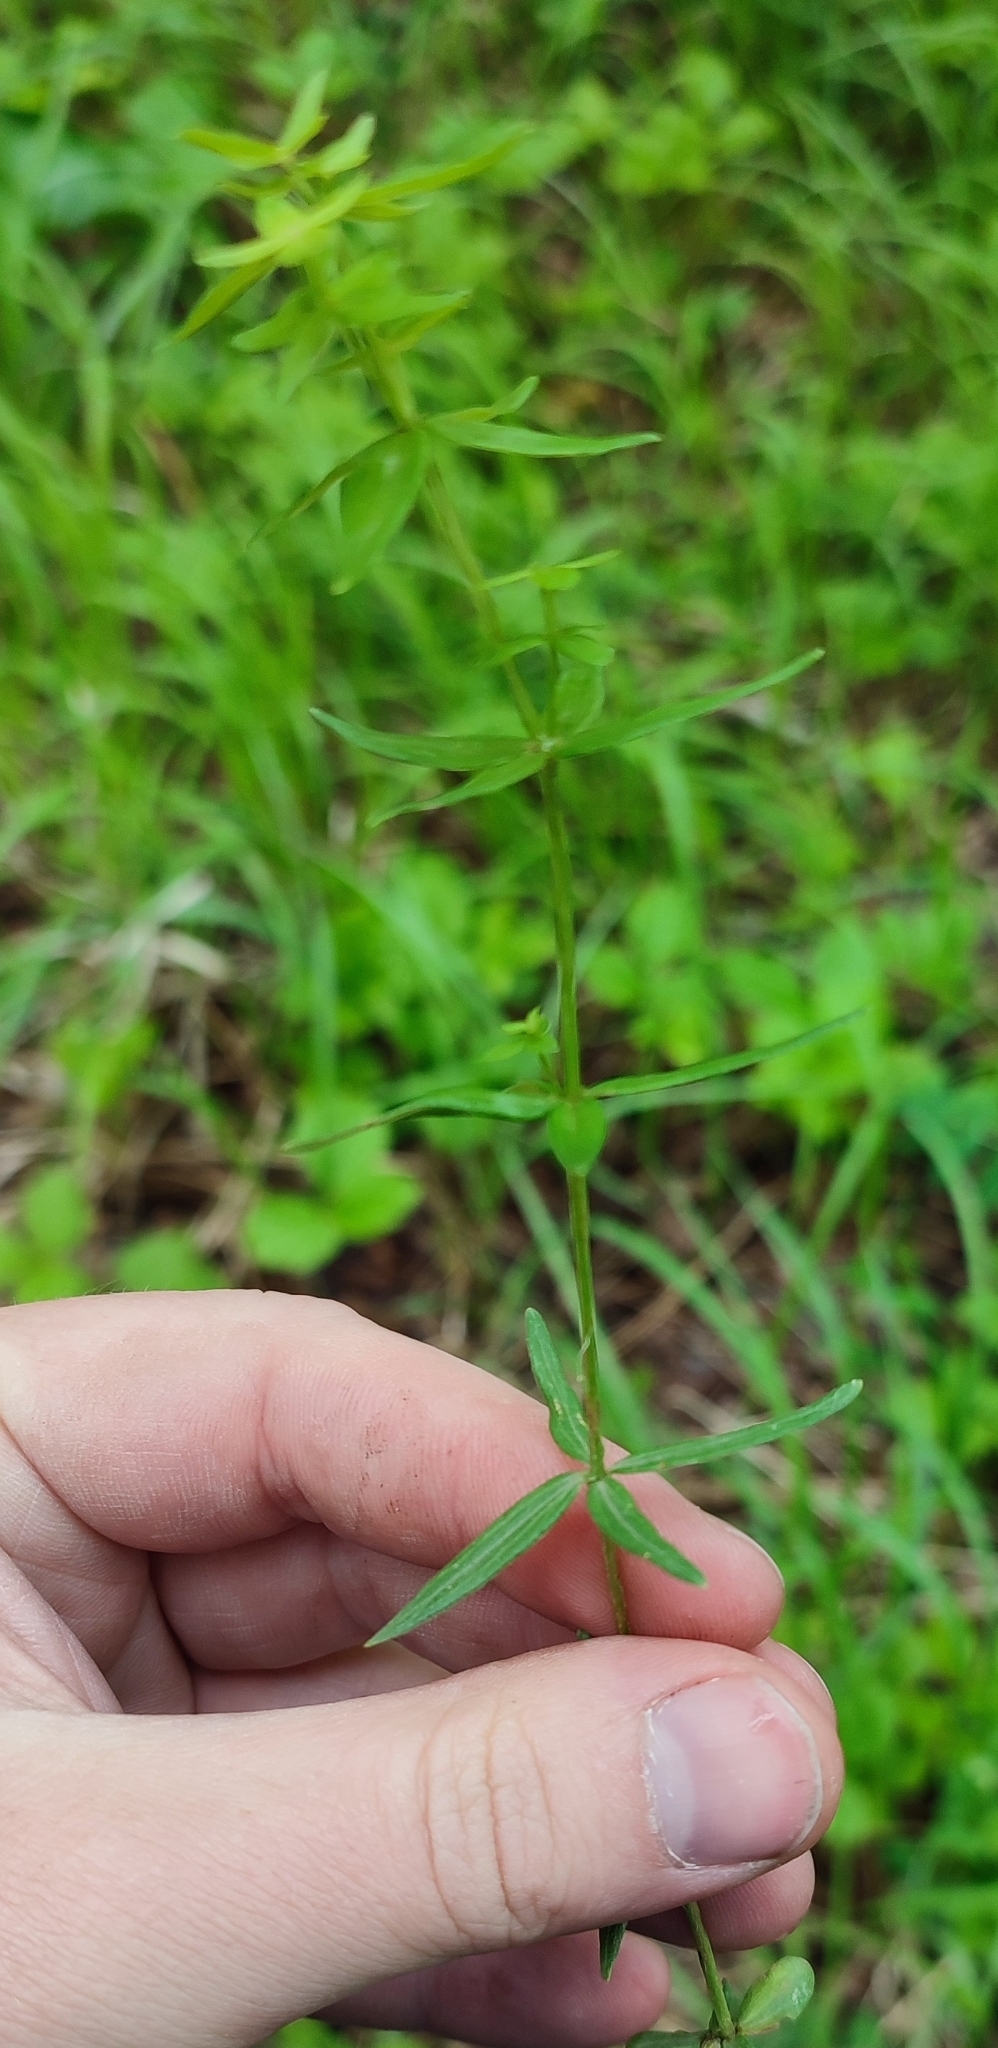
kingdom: Plantae
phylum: Tracheophyta
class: Magnoliopsida
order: Gentianales
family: Rubiaceae
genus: Galium
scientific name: Galium boreale
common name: Northern bedstraw
